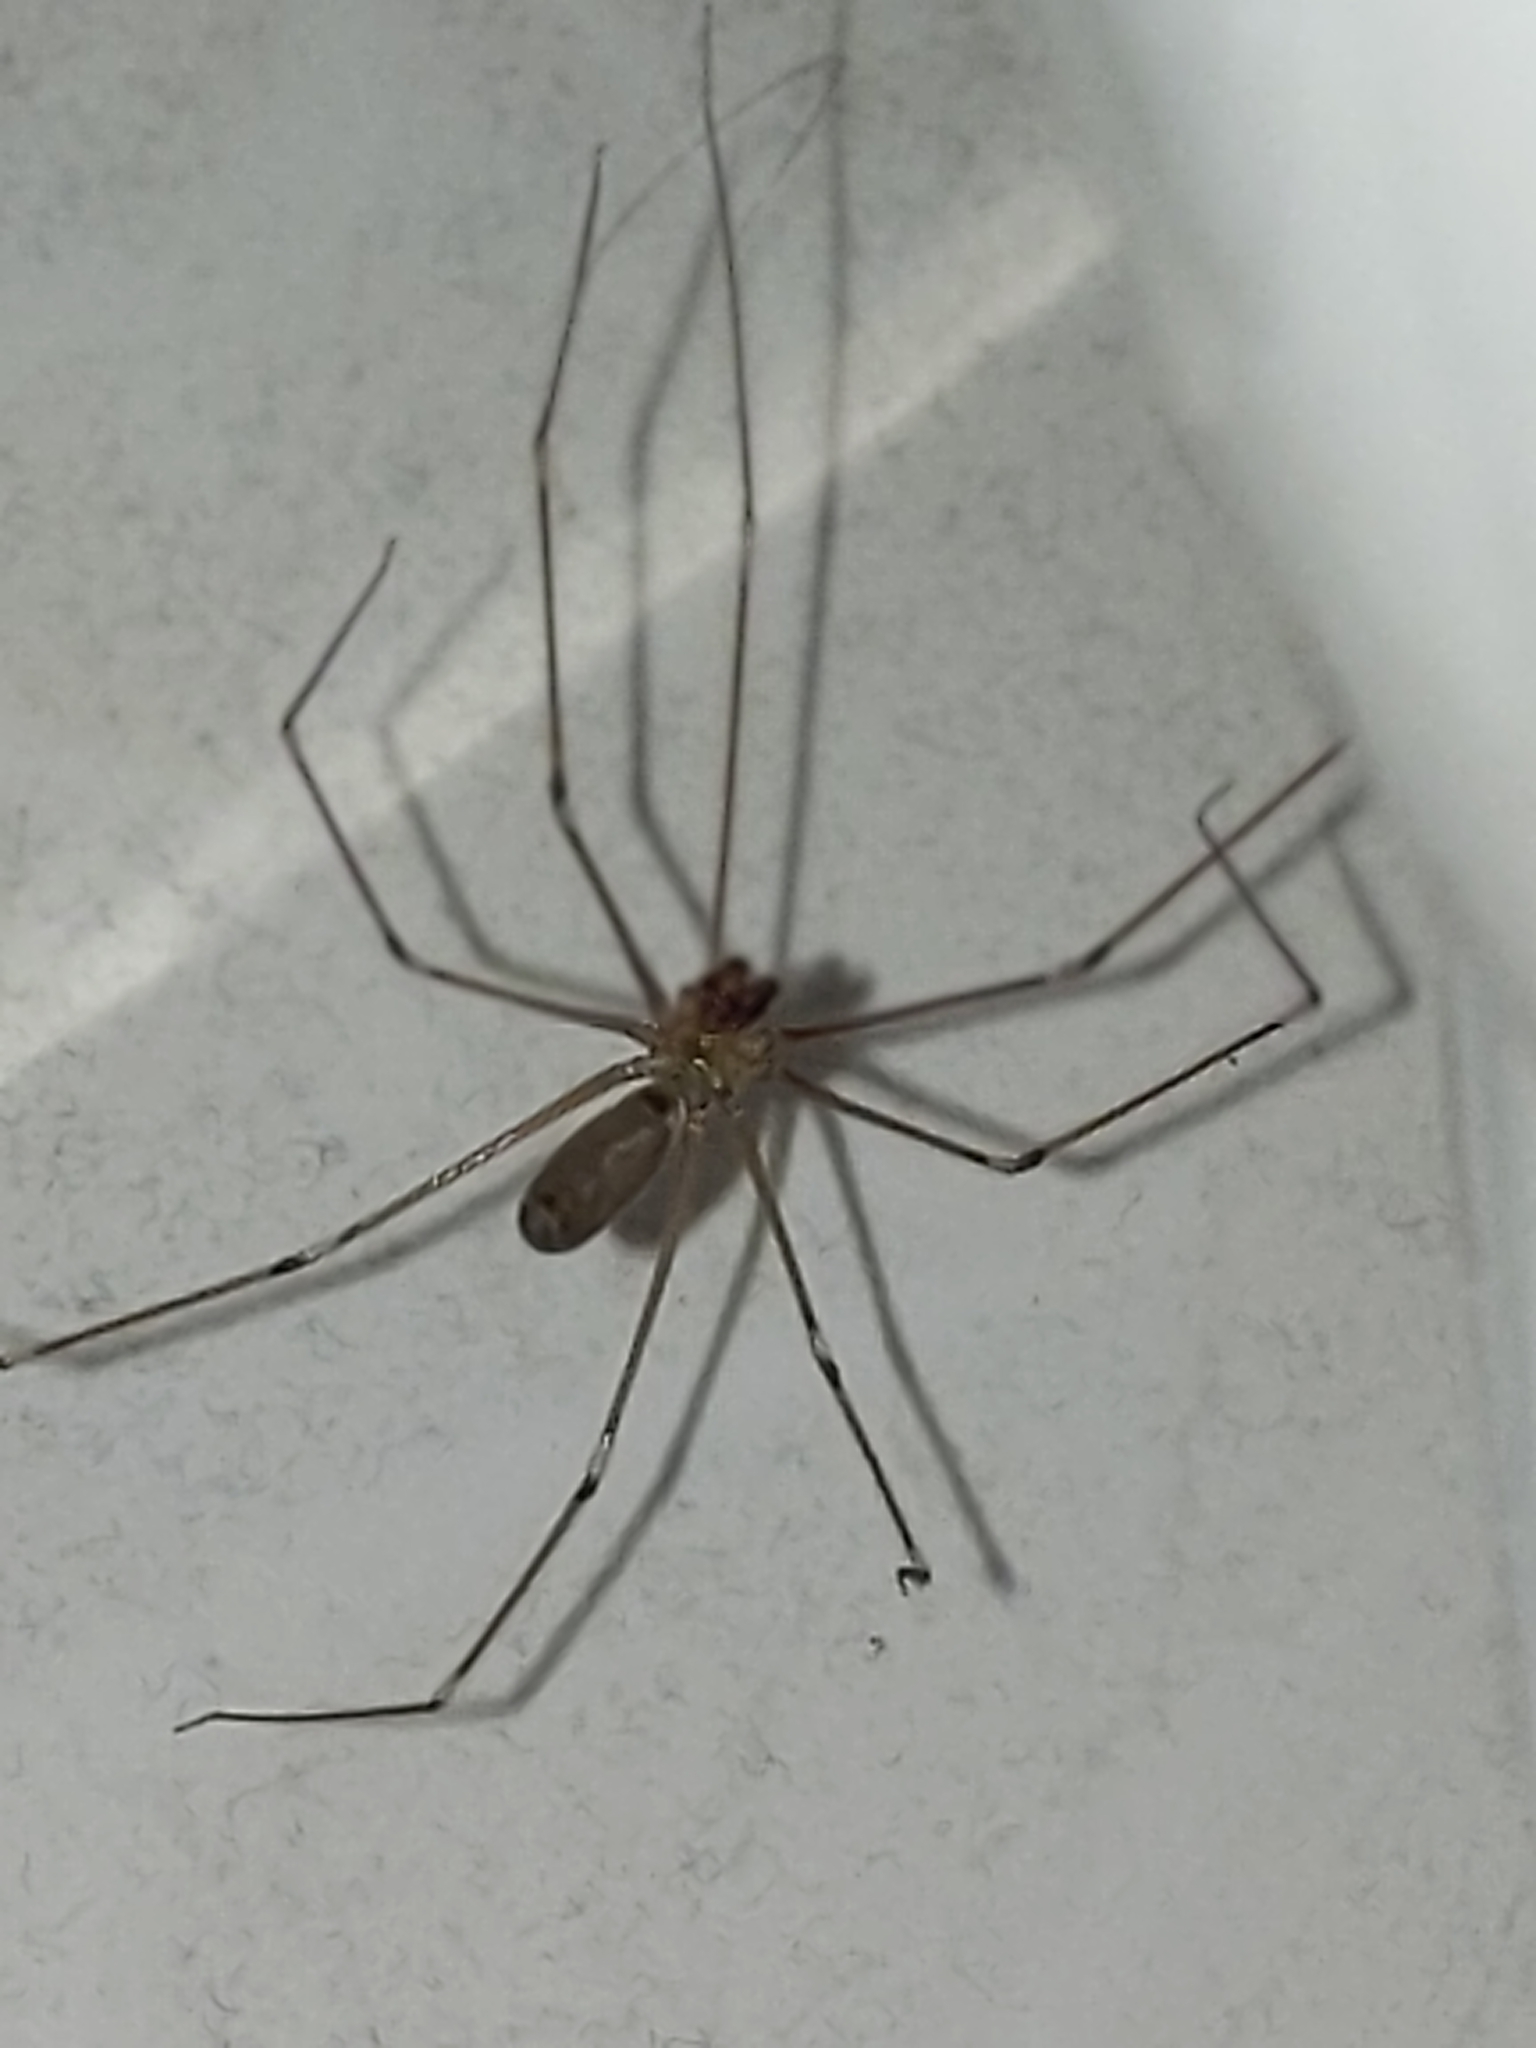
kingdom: Animalia
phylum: Arthropoda
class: Arachnida
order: Araneae
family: Pholcidae
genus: Pholcus
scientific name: Pholcus phalangioides
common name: Longbodied cellar spider
